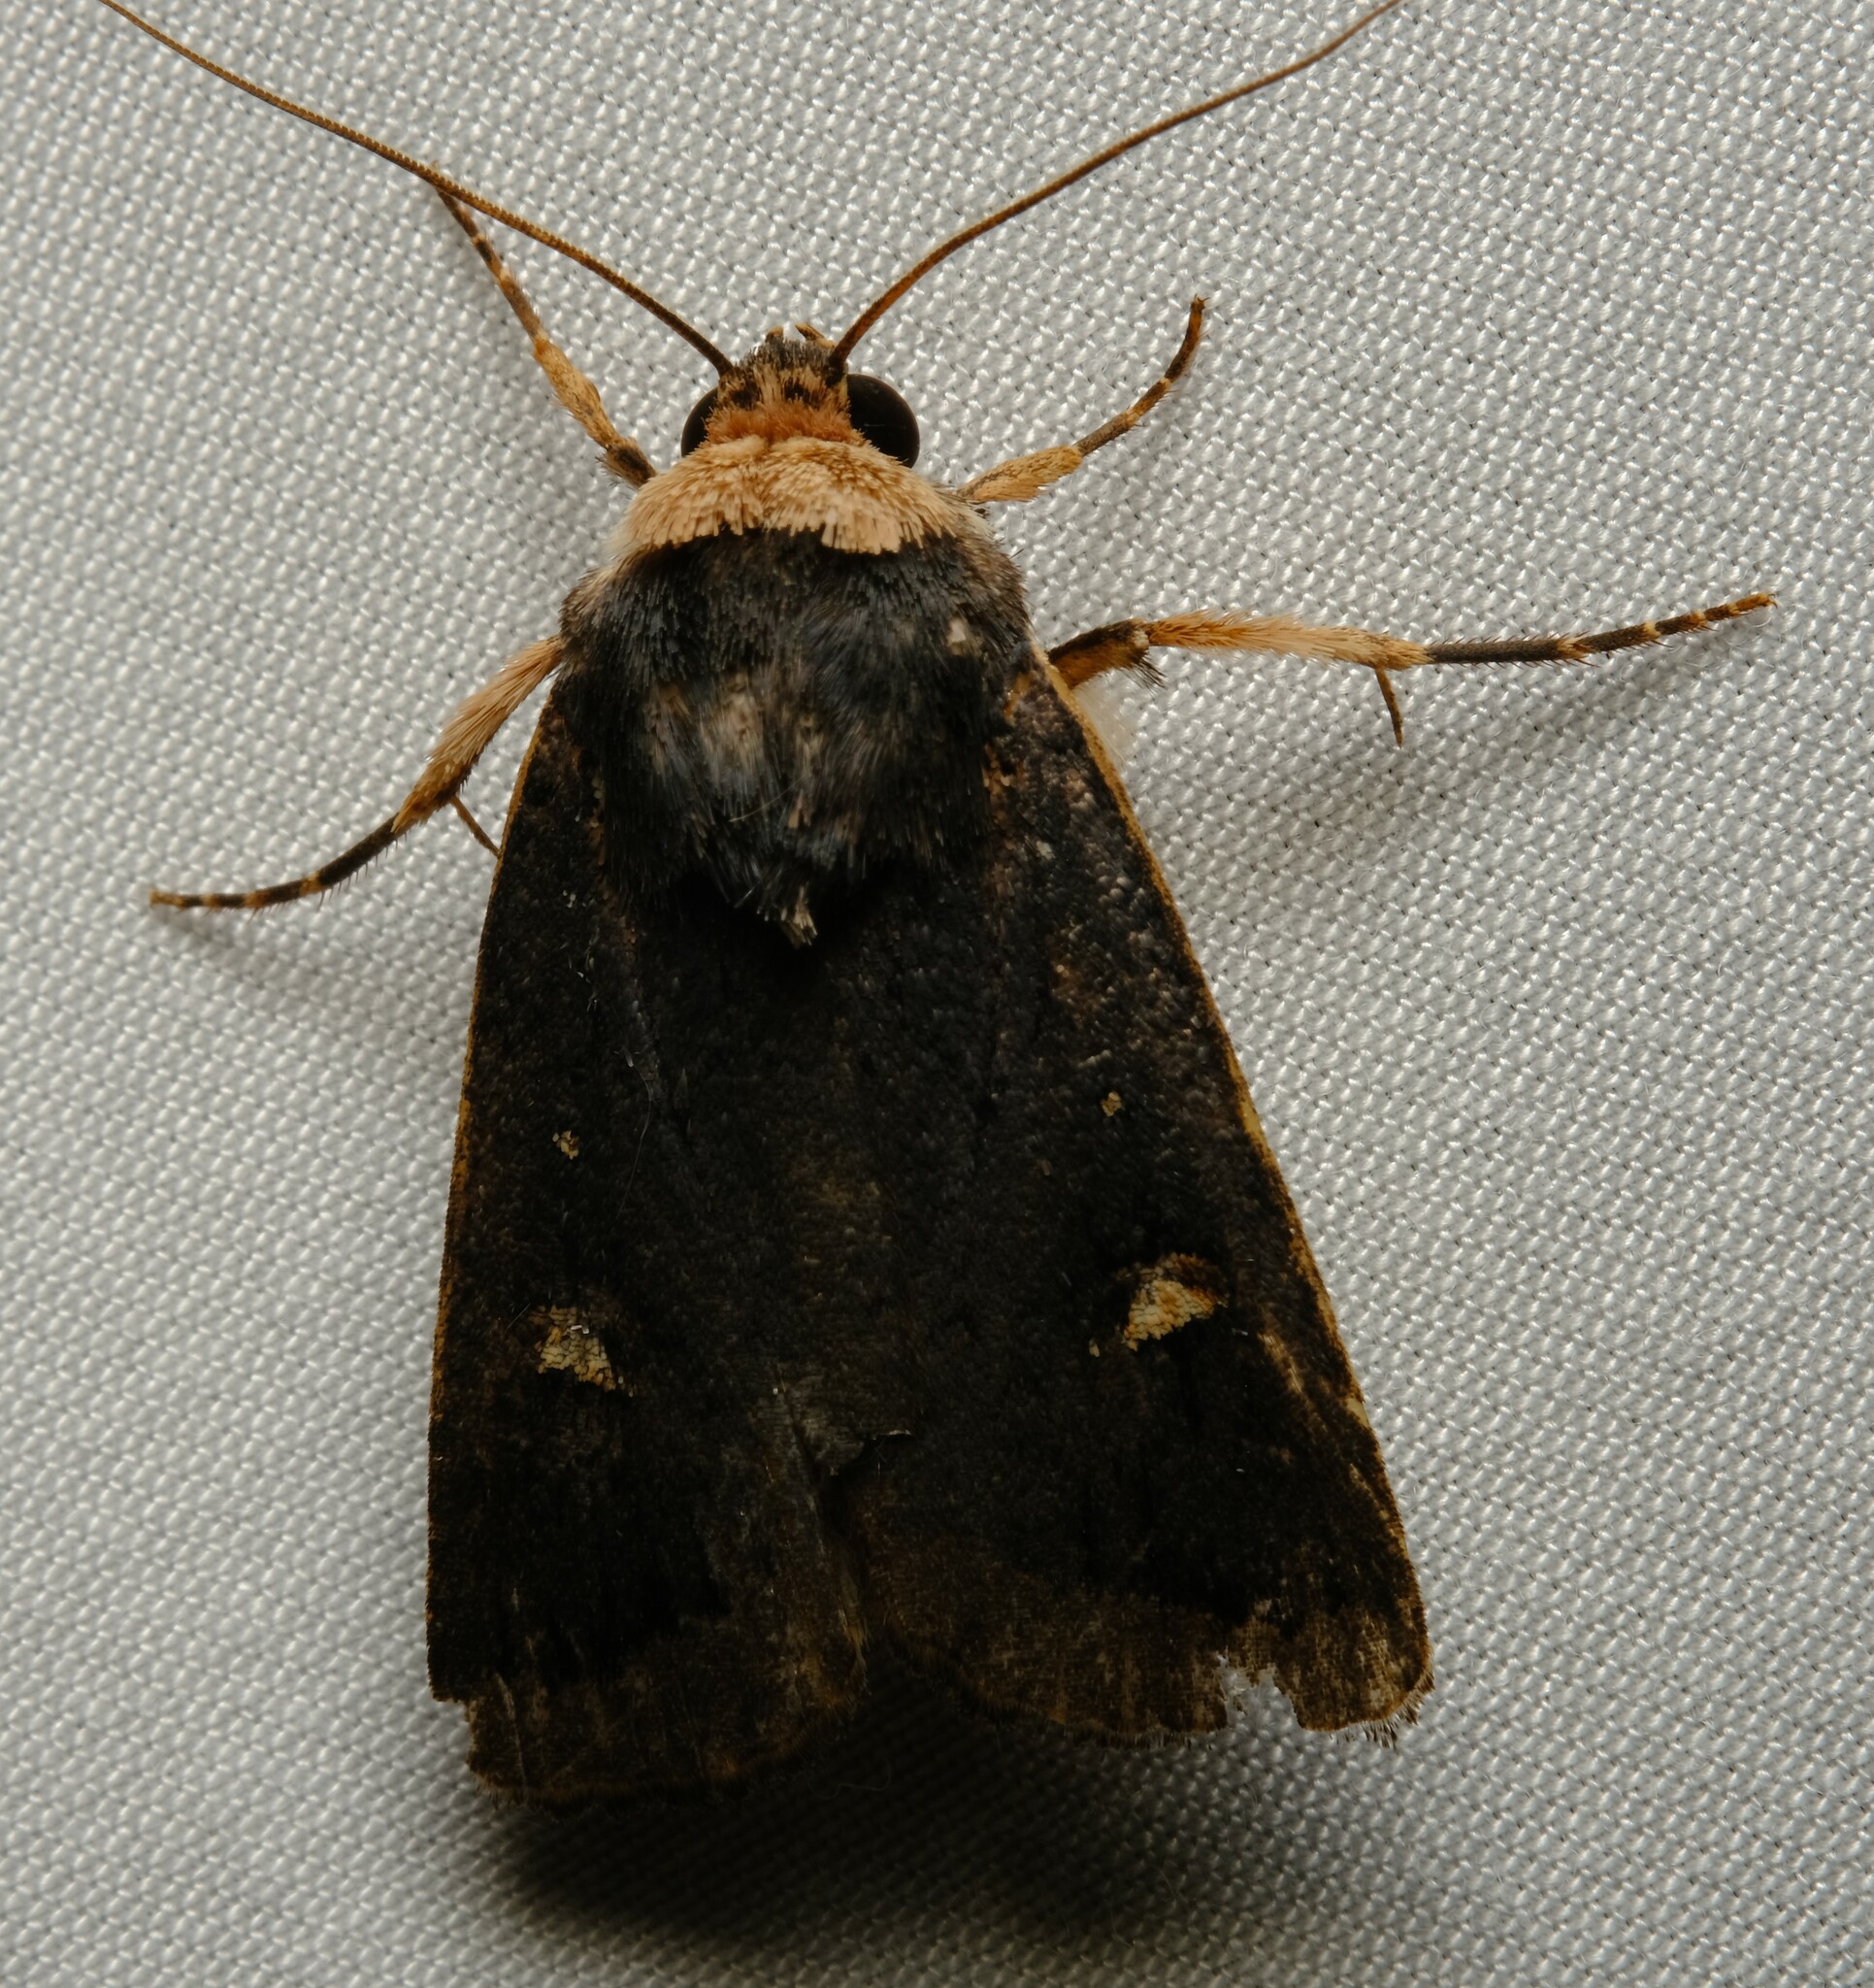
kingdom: Animalia
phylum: Arthropoda
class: Insecta
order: Lepidoptera
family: Noctuidae
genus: Proteuxoa
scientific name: Proteuxoa testaceicollis
